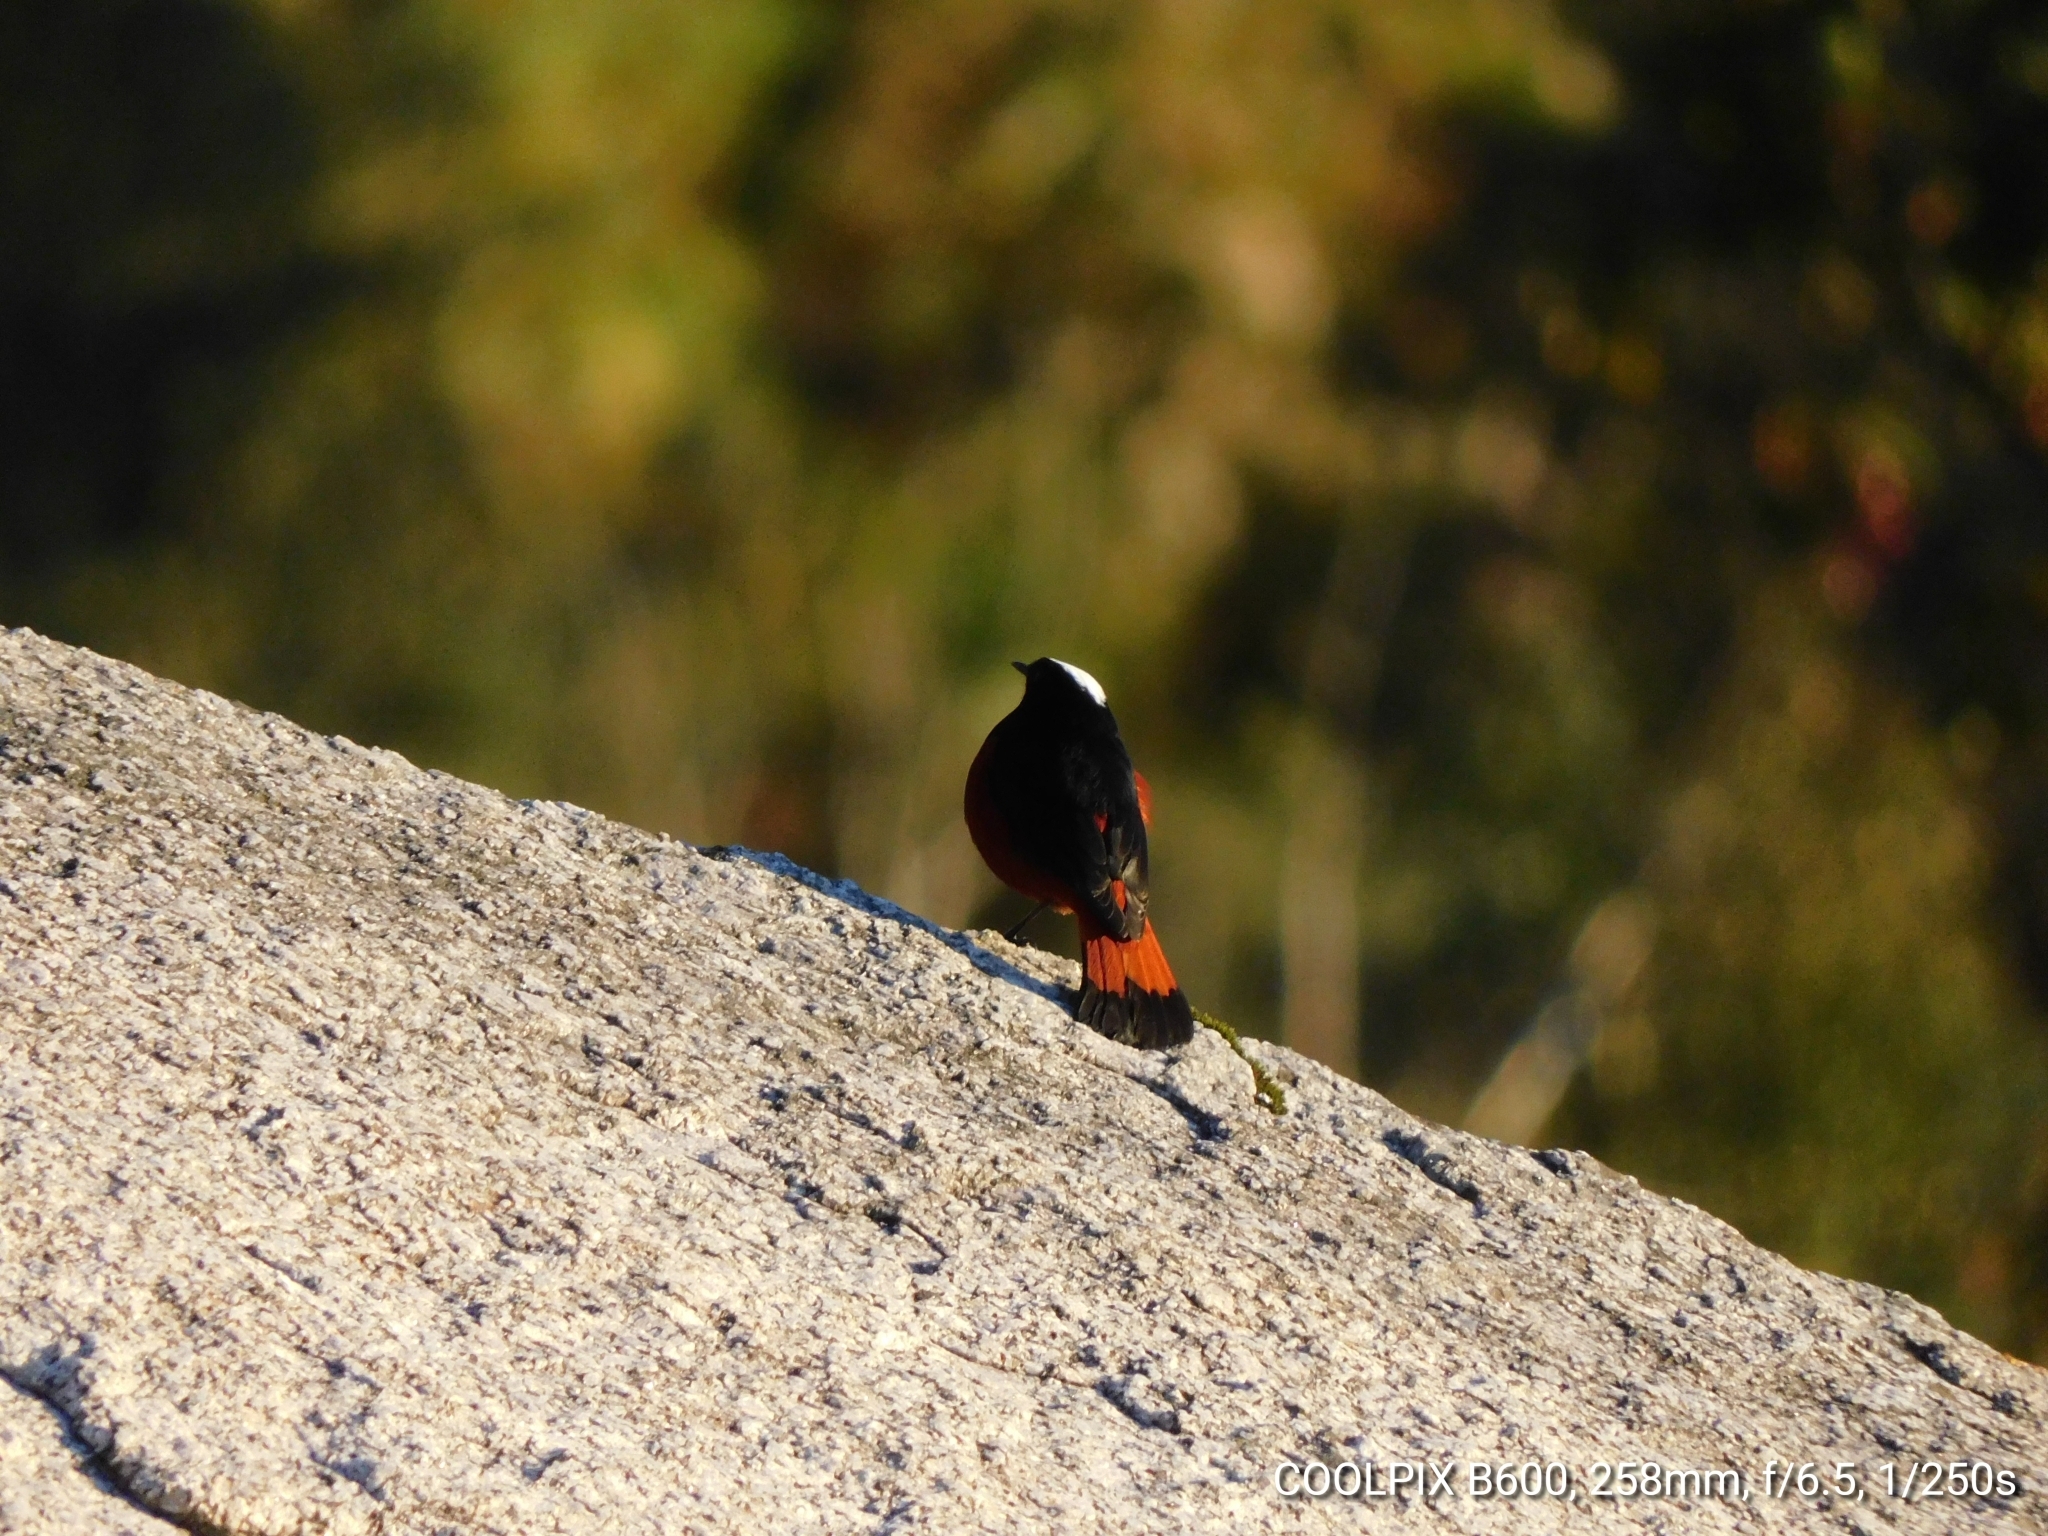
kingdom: Animalia
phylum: Chordata
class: Aves
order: Passeriformes
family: Muscicapidae
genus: Chaimarrornis
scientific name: Chaimarrornis leucocephalus
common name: White-capped redstart
